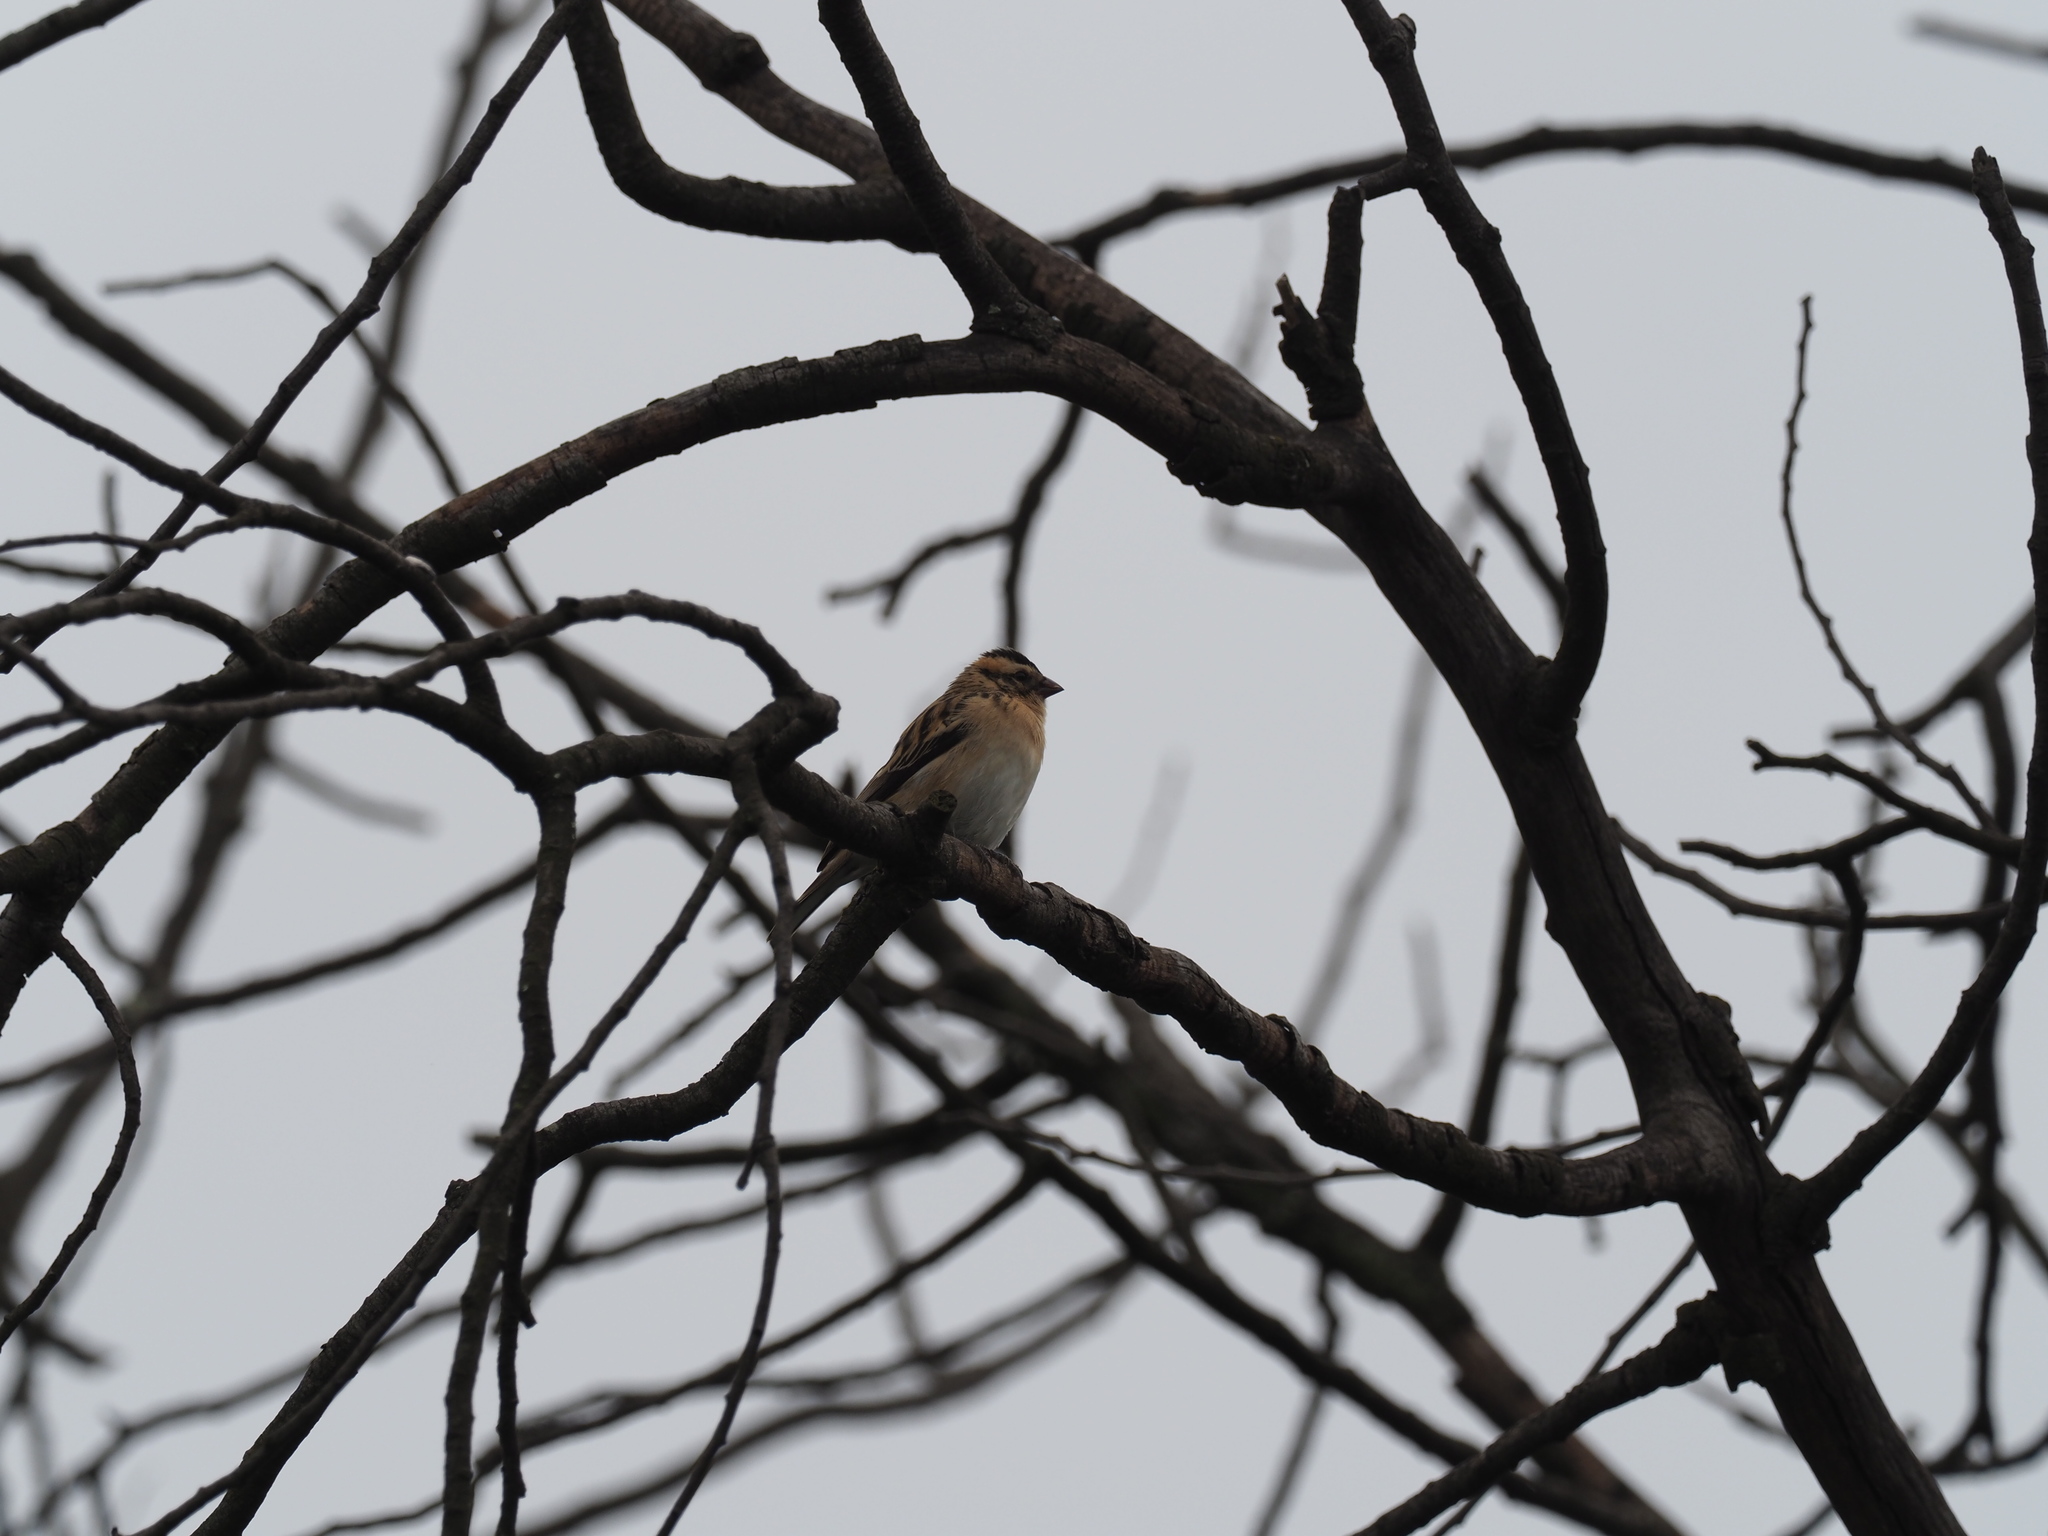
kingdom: Animalia
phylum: Chordata
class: Aves
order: Passeriformes
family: Viduidae
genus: Vidua
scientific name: Vidua macroura
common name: Pin-tailed whydah
